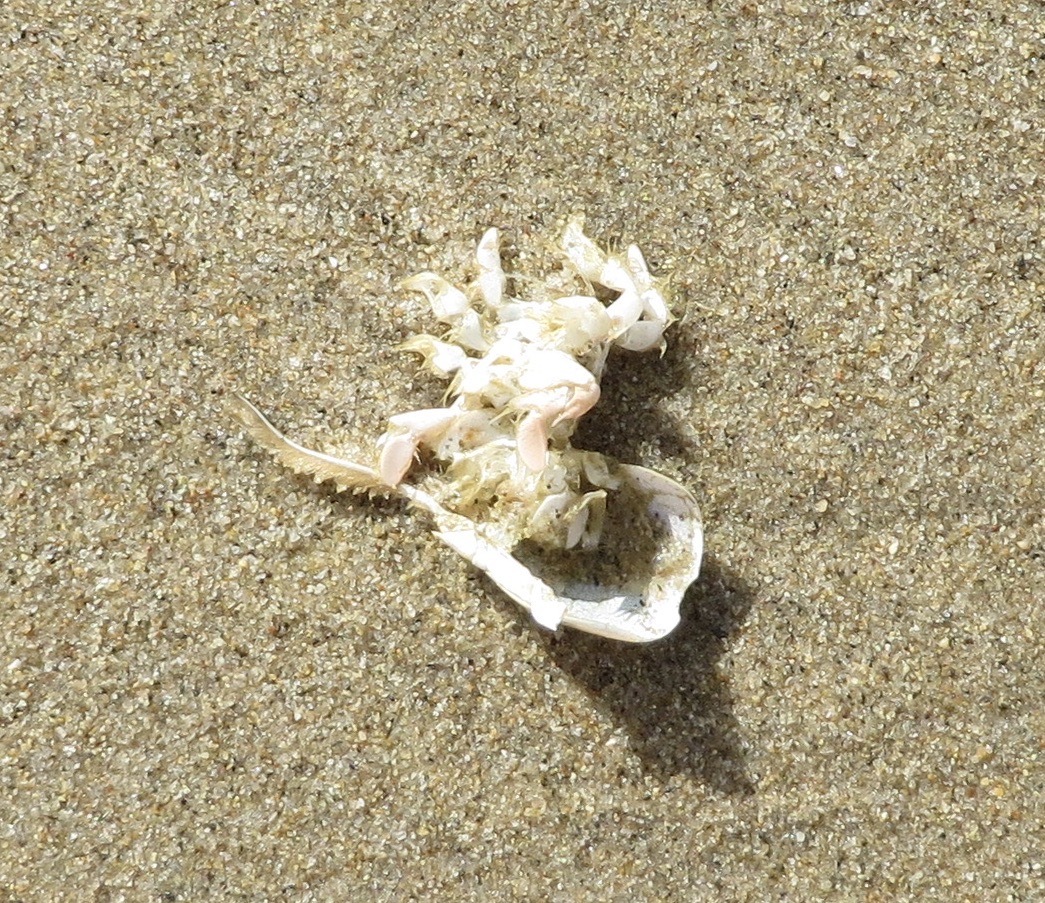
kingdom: Animalia
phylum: Arthropoda
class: Malacostraca
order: Decapoda
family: Hippidae
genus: Emerita
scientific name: Emerita analoga
